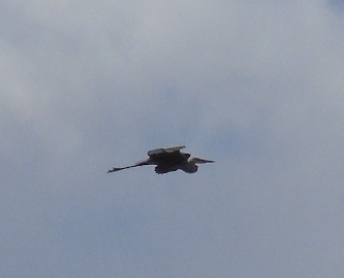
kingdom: Animalia
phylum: Chordata
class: Aves
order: Pelecaniformes
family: Ardeidae
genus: Ardea
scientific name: Ardea herodias
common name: Great blue heron
